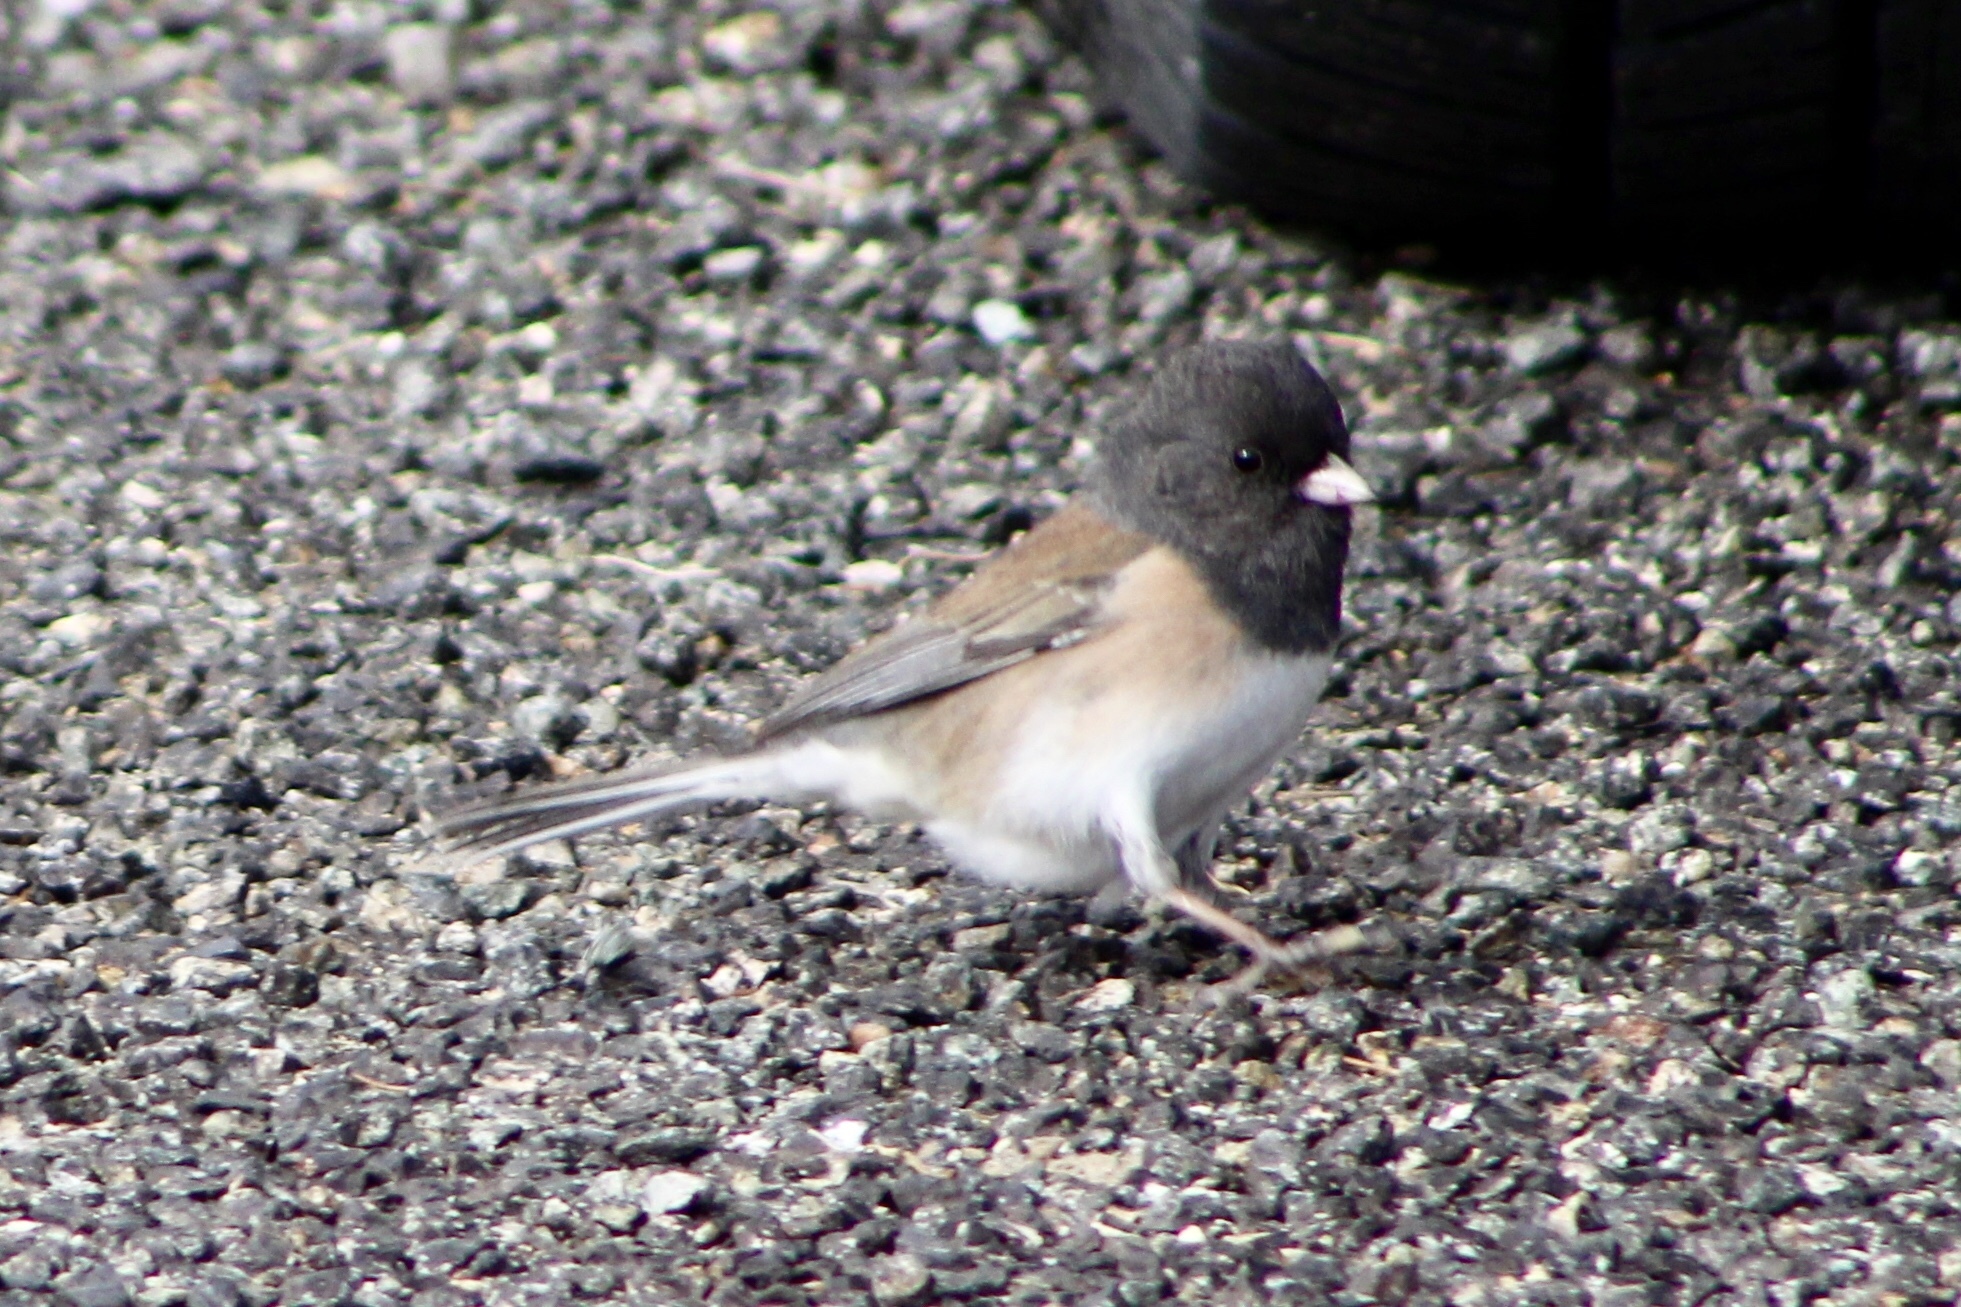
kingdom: Animalia
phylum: Chordata
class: Aves
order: Passeriformes
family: Passerellidae
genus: Junco
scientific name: Junco hyemalis
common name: Dark-eyed junco
